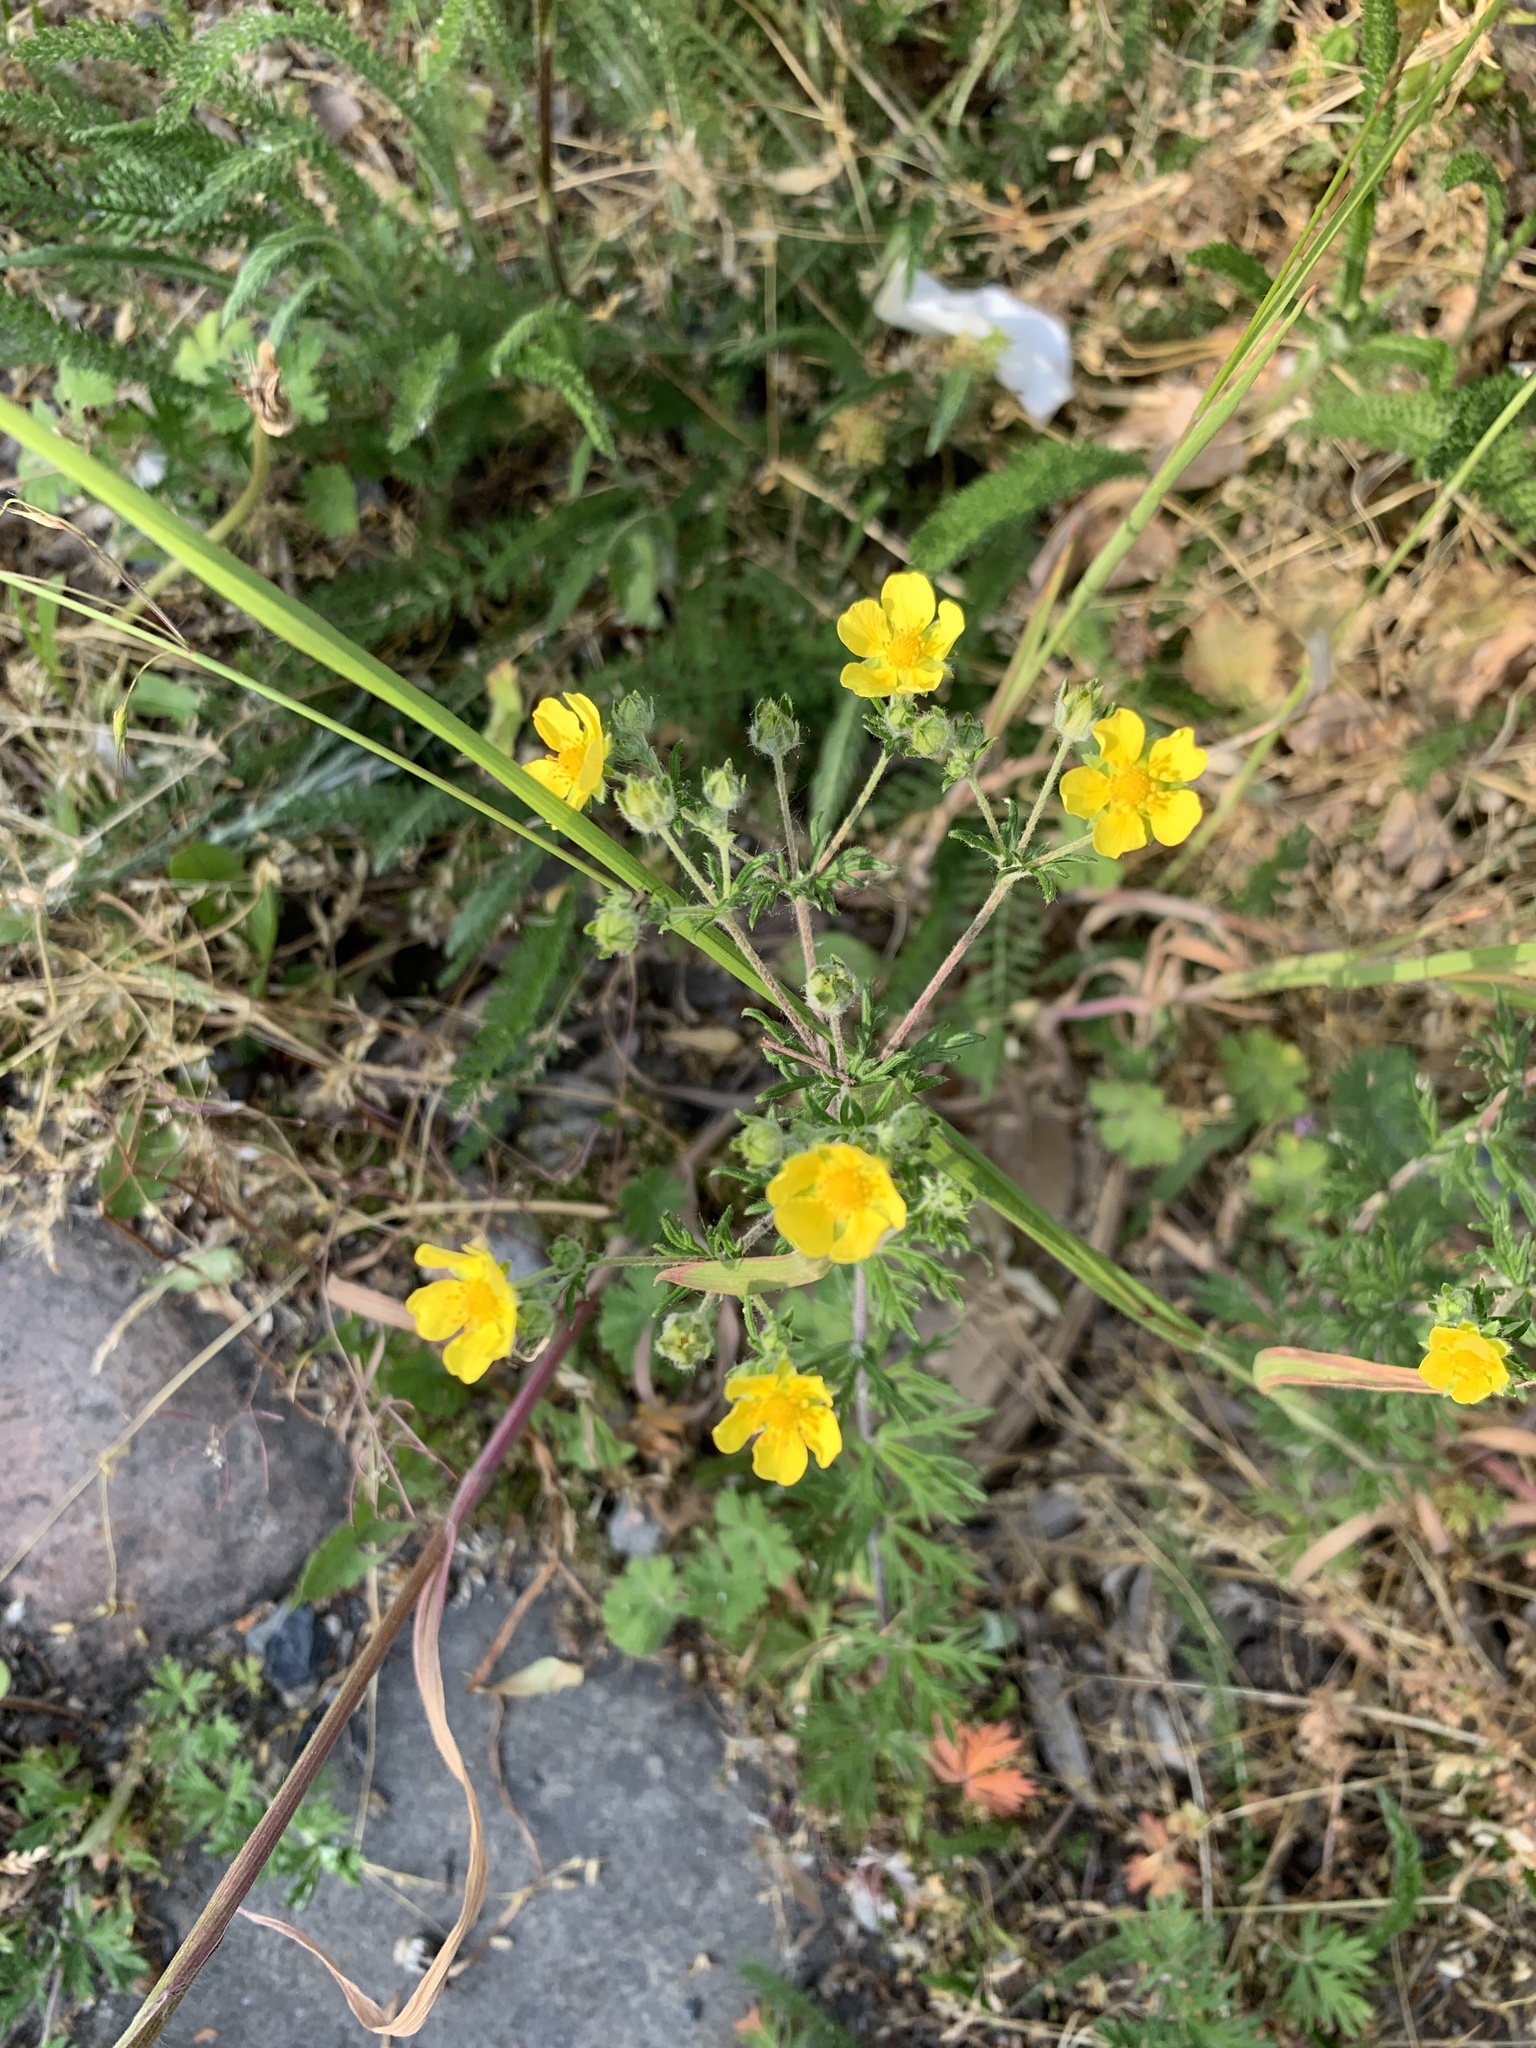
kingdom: Plantae
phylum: Tracheophyta
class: Magnoliopsida
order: Rosales
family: Rosaceae
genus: Potentilla
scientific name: Potentilla argentea
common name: Hoary cinquefoil
